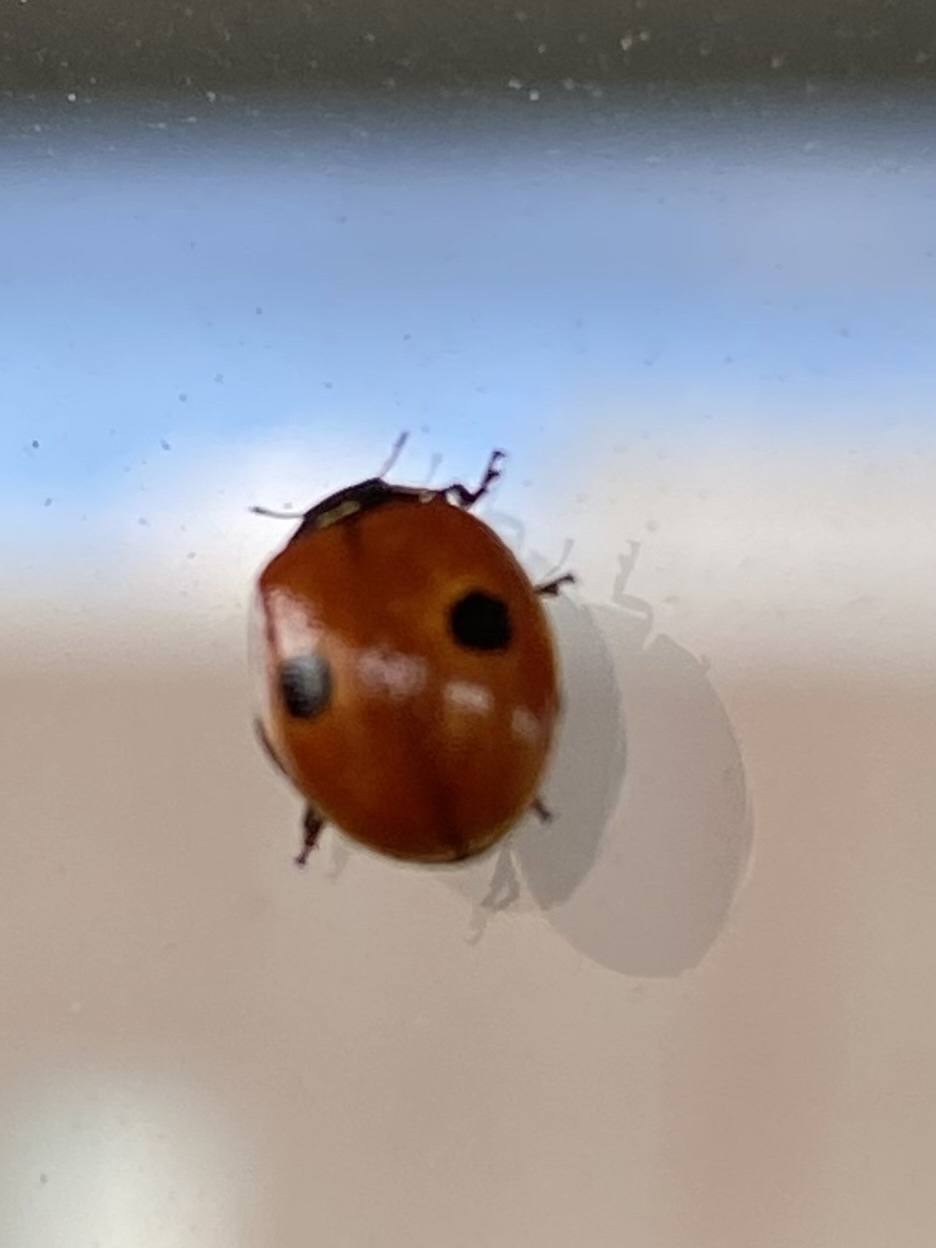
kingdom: Animalia
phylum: Arthropoda
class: Insecta
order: Coleoptera
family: Coccinellidae
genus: Adalia
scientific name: Adalia bipunctata
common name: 2-spot ladybird
